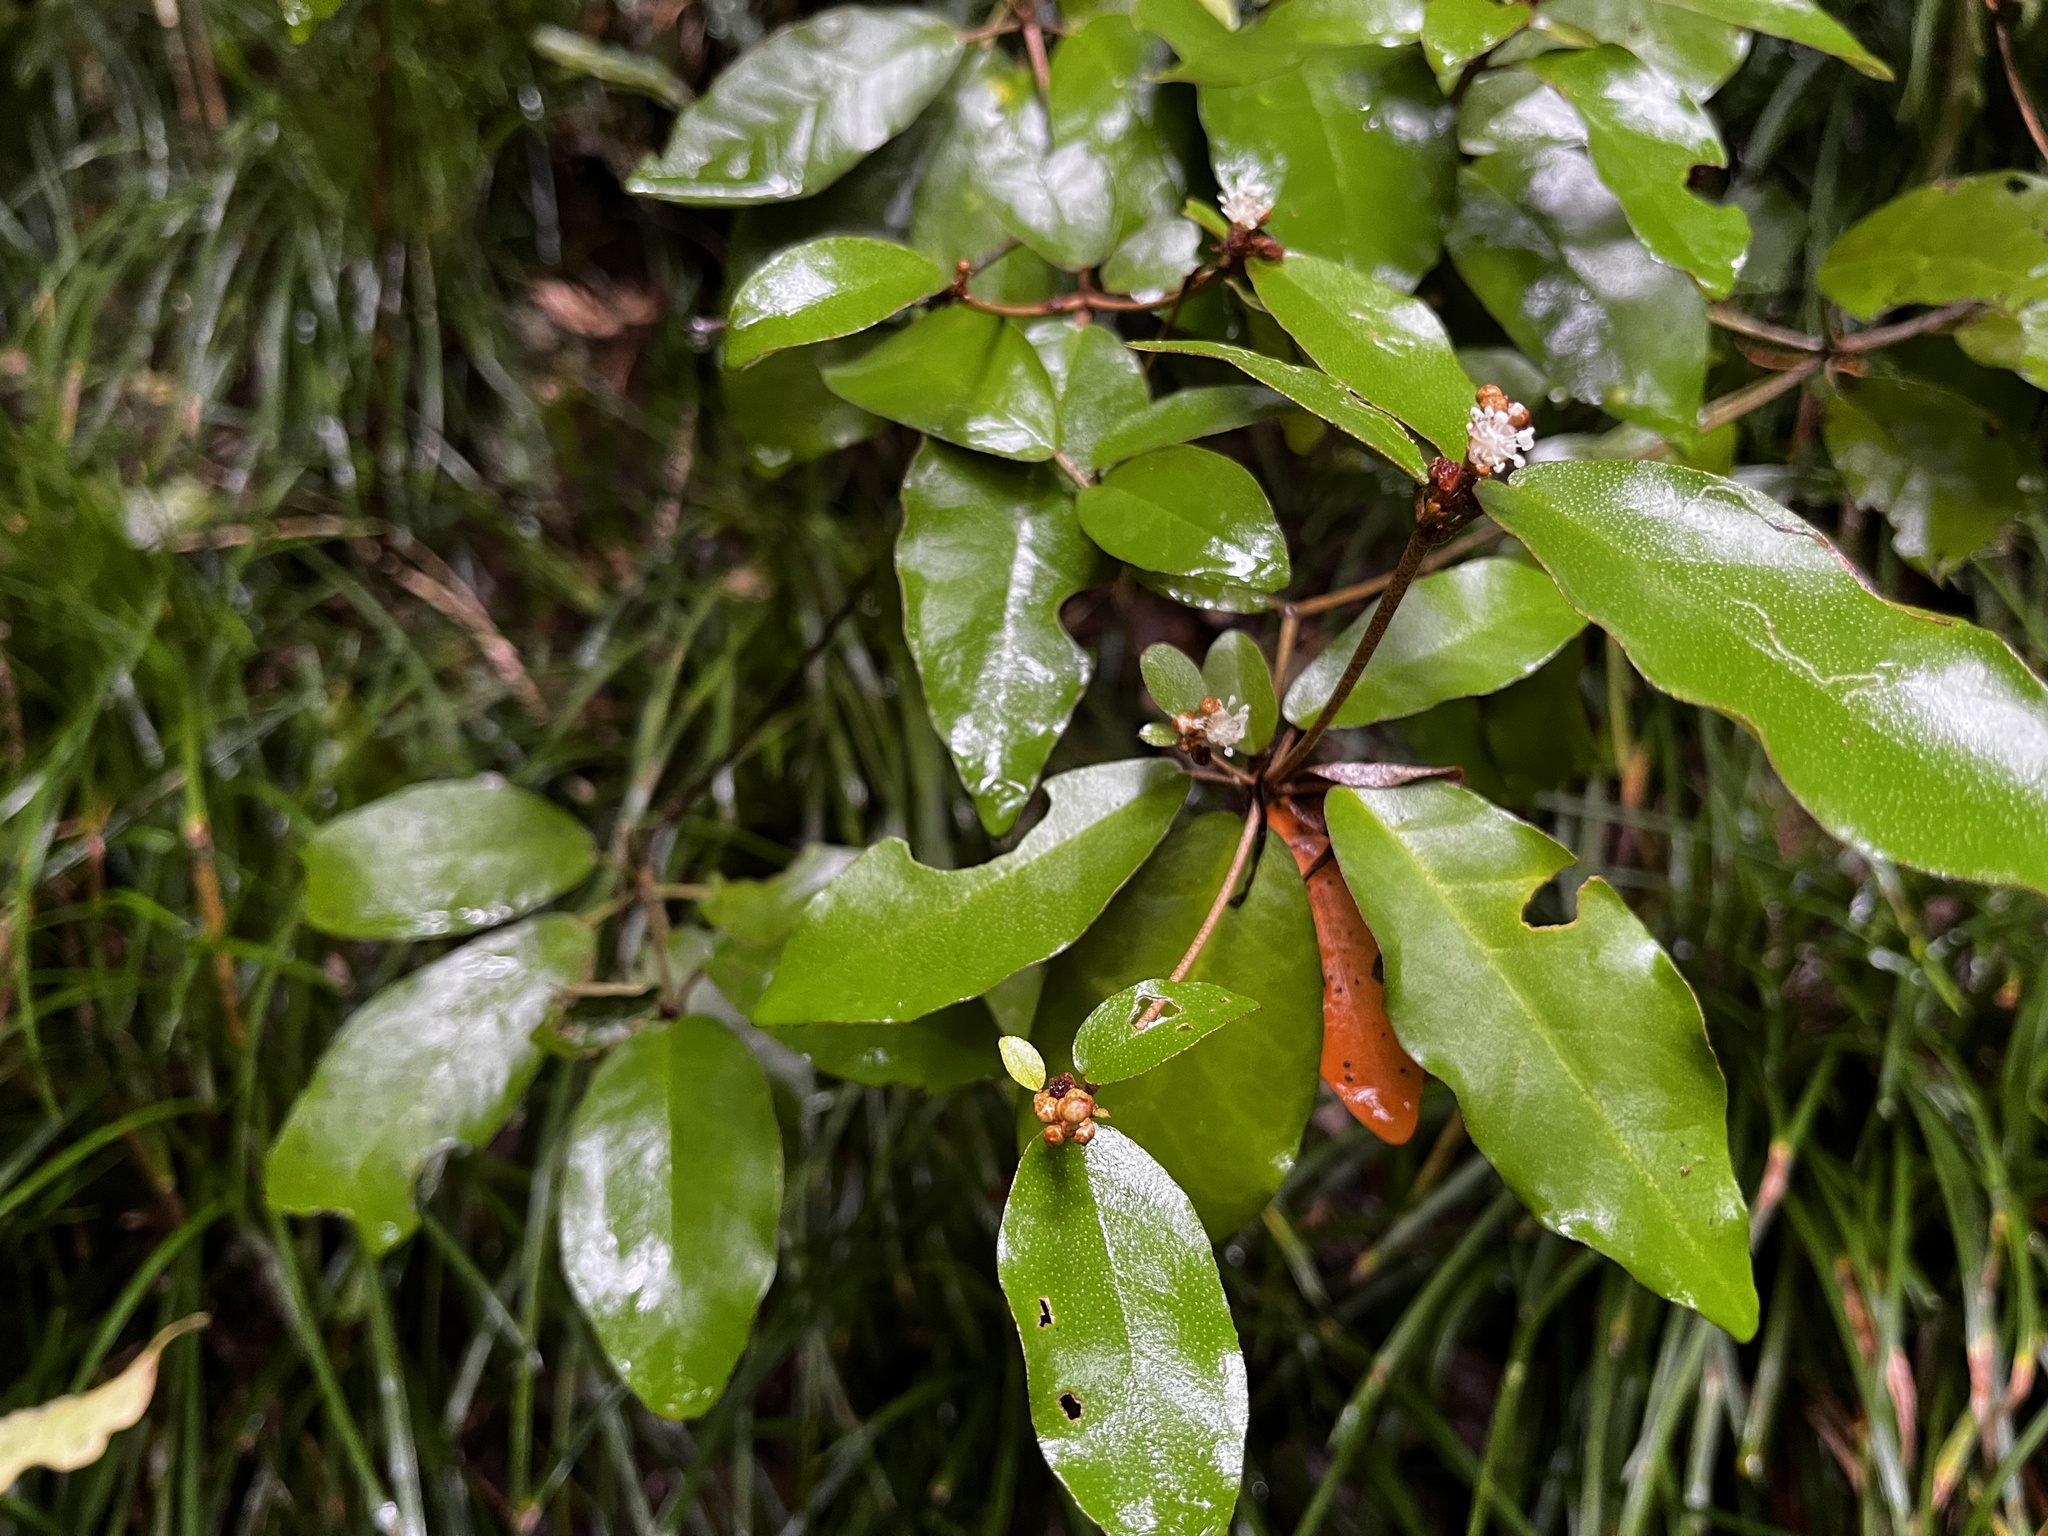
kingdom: Plantae
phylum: Tracheophyta
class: Magnoliopsida
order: Malpighiales
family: Euphorbiaceae
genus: Croton
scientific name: Croton cascarilloides
